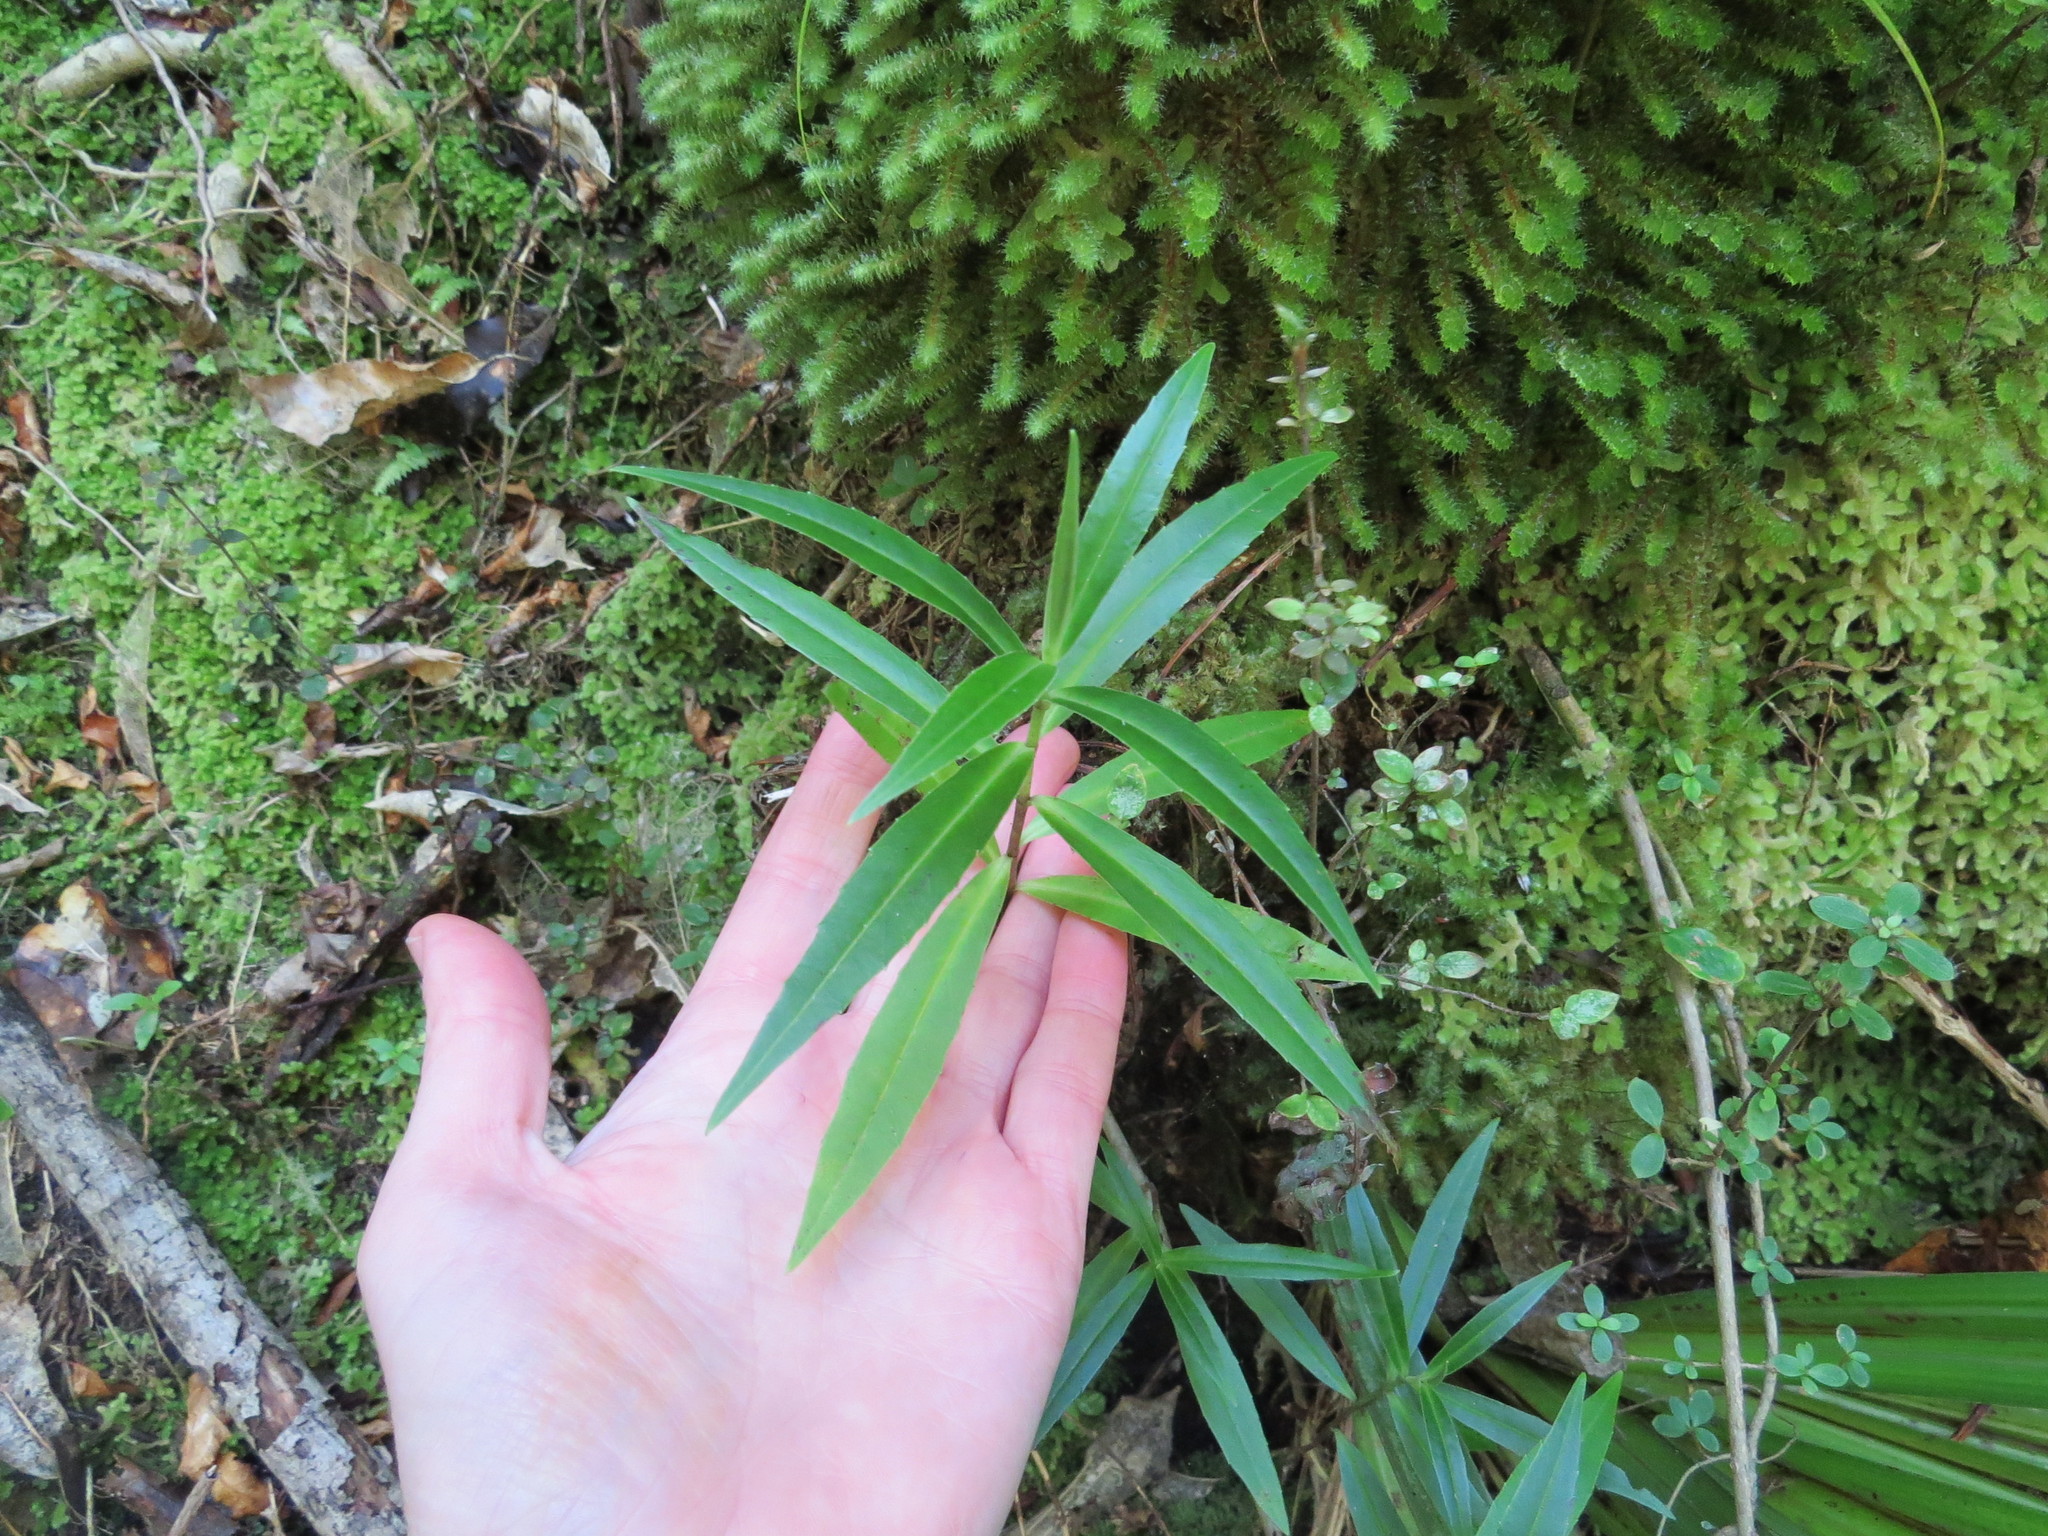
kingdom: Plantae
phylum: Tracheophyta
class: Magnoliopsida
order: Lamiales
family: Plantaginaceae
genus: Veronica
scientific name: Veronica salicifolia
